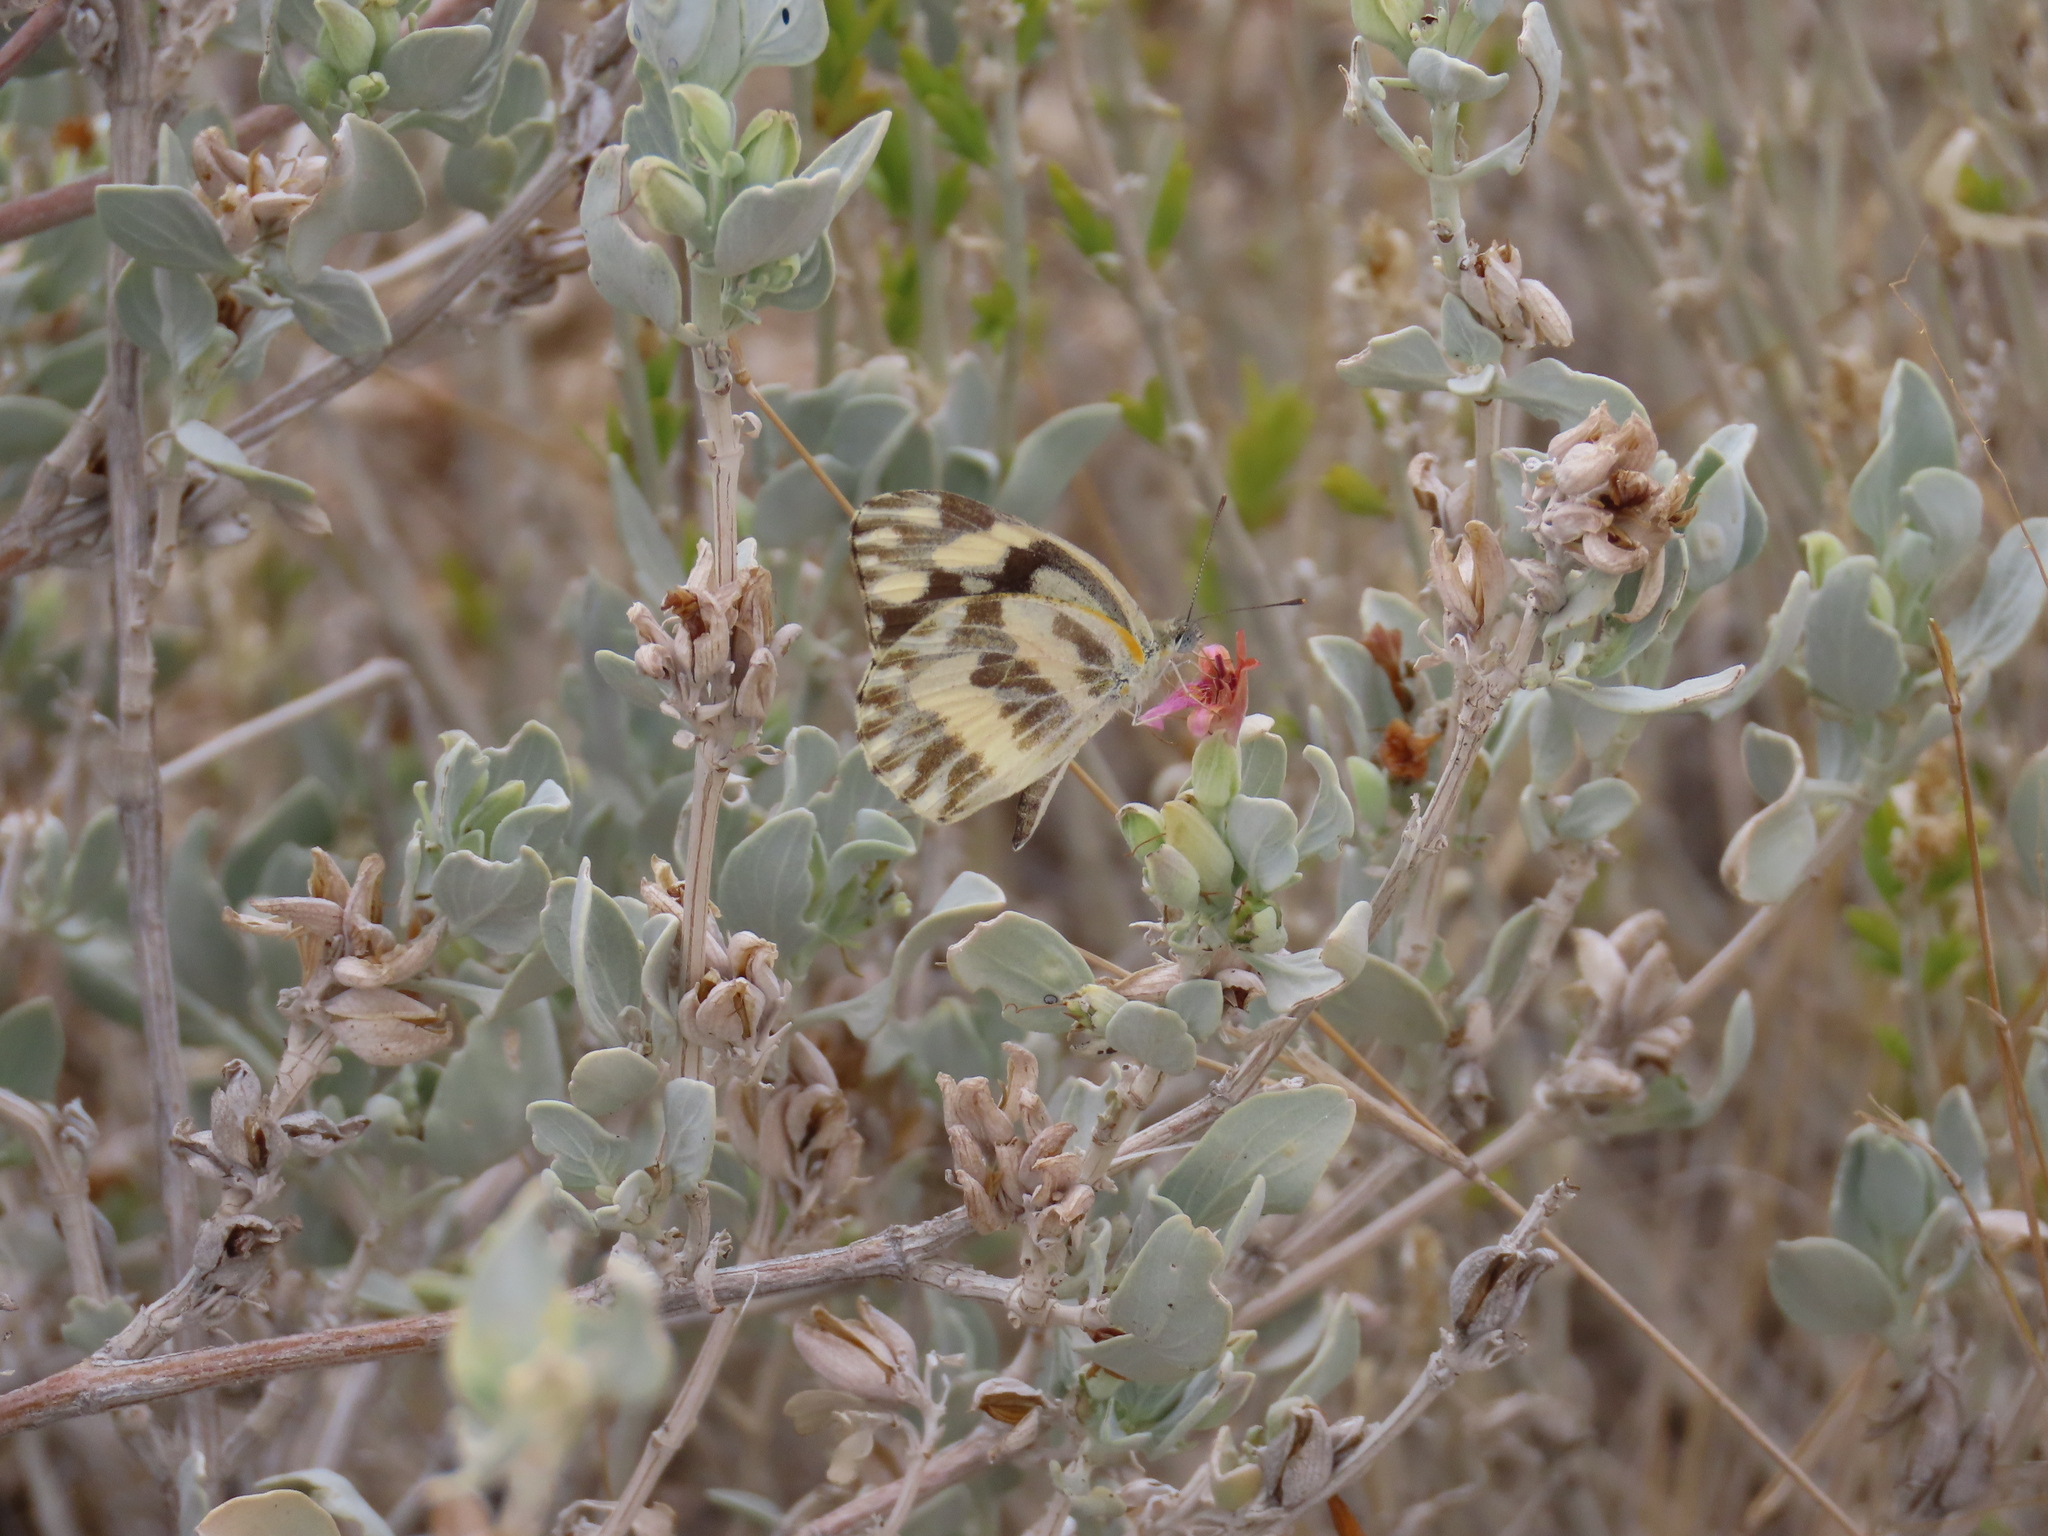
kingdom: Animalia
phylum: Arthropoda
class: Insecta
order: Lepidoptera
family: Pieridae
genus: Pinacopteryx
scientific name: Pinacopteryx eriphia
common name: Zebra white
